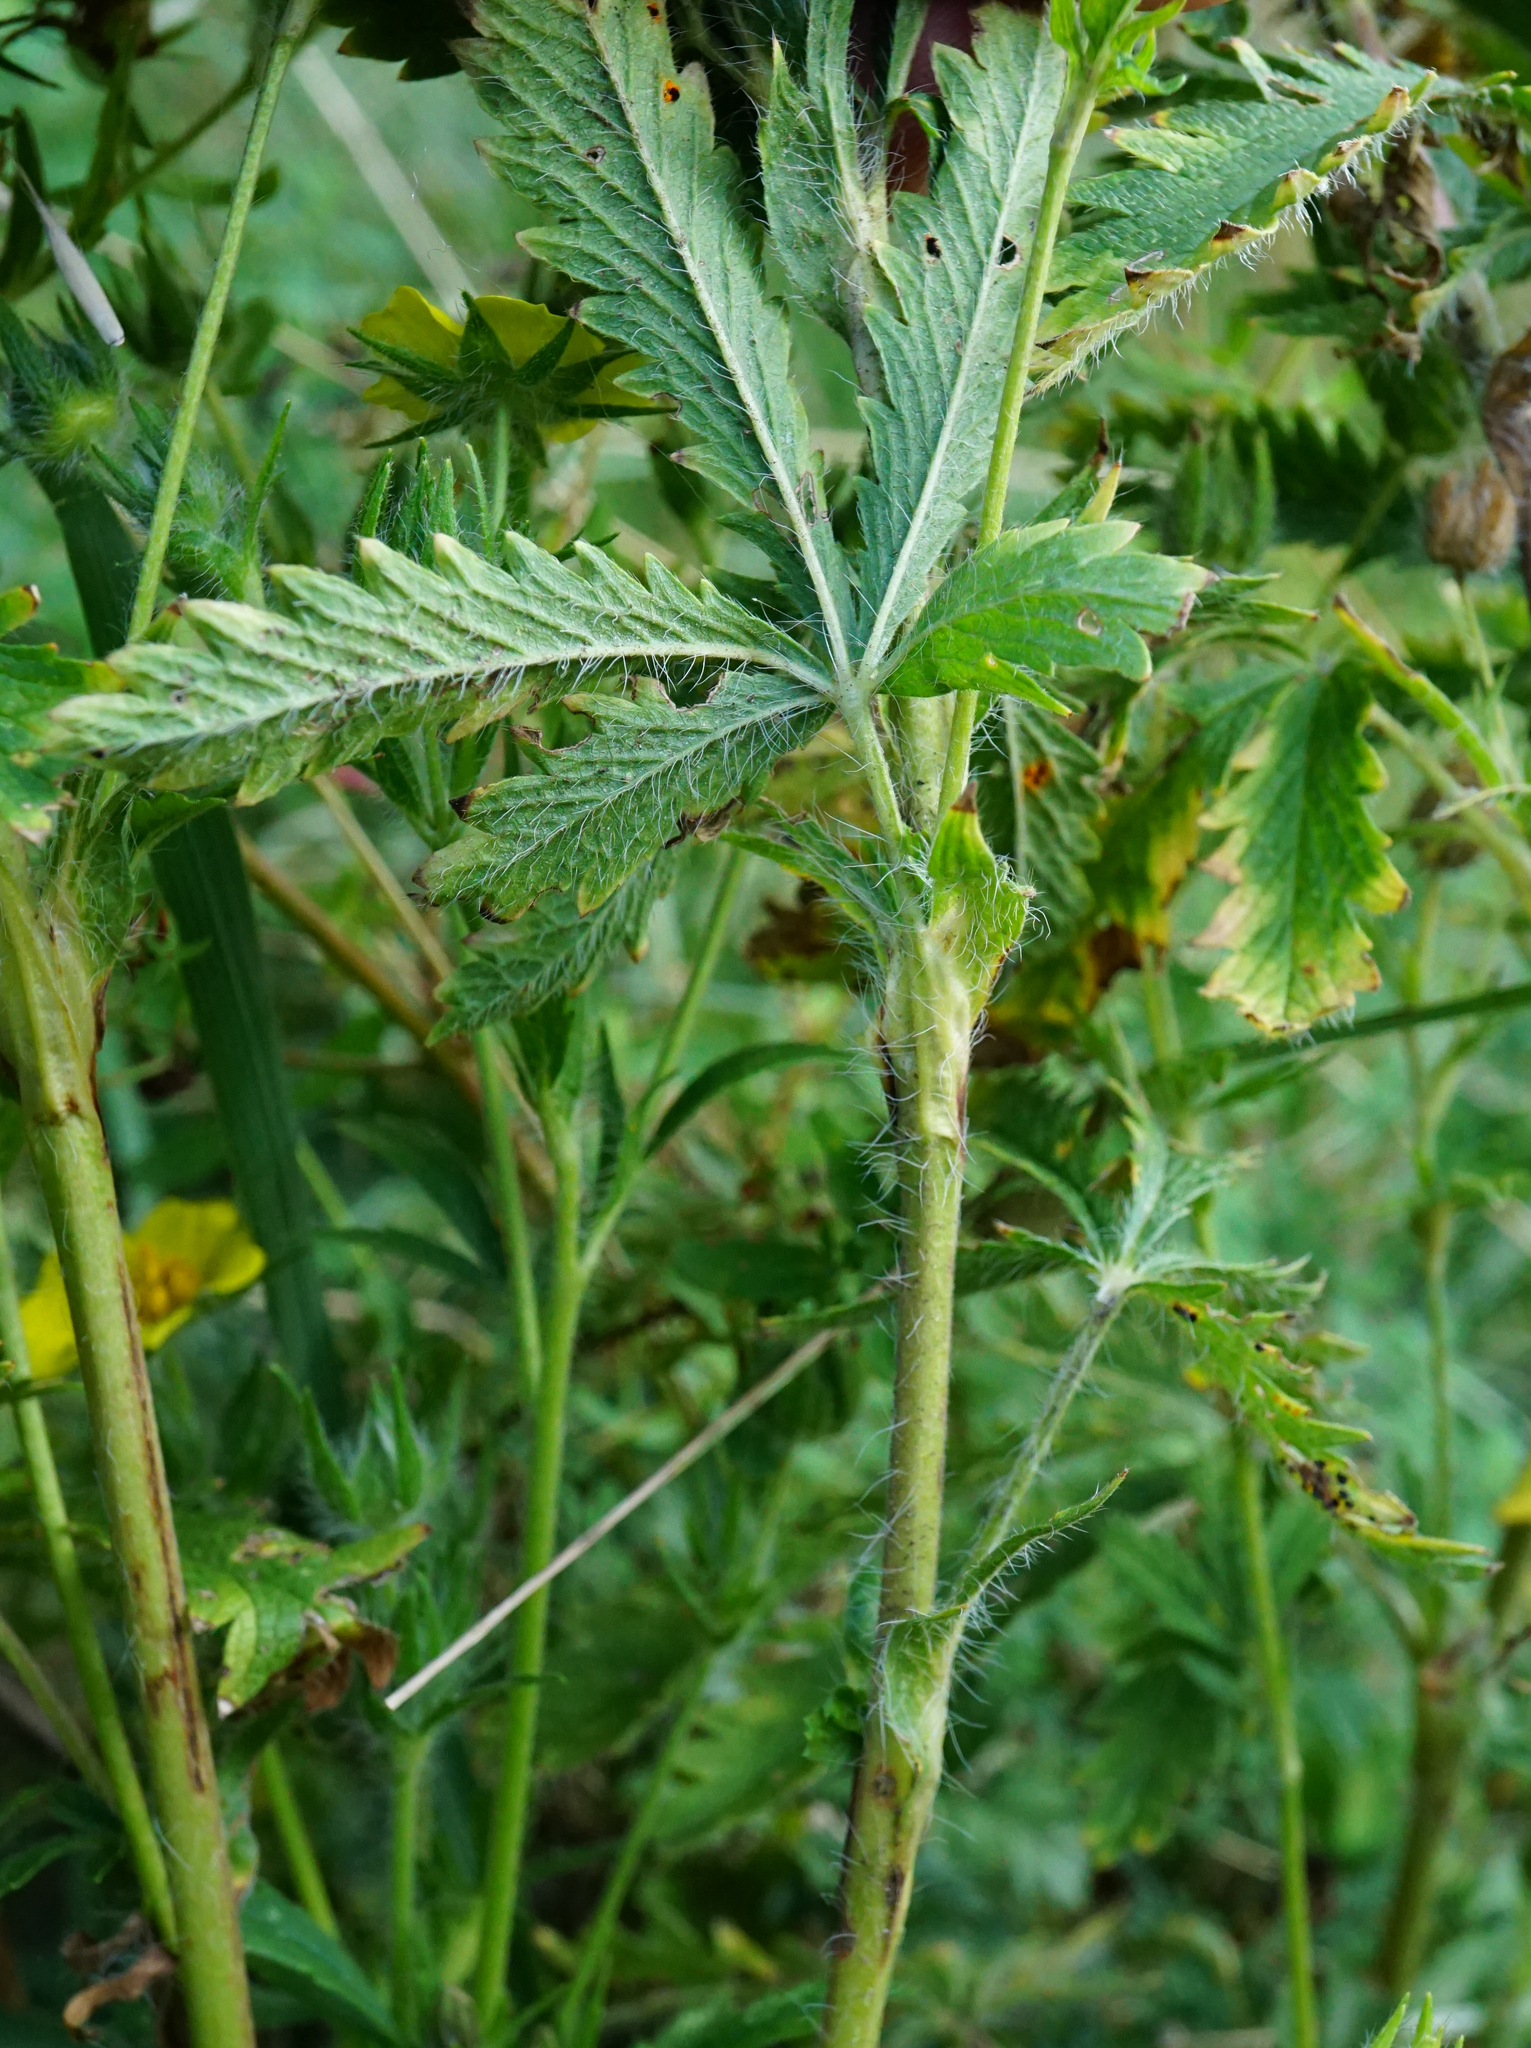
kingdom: Plantae
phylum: Tracheophyta
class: Magnoliopsida
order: Rosales
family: Rosaceae
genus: Potentilla
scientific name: Potentilla recta
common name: Sulphur cinquefoil
